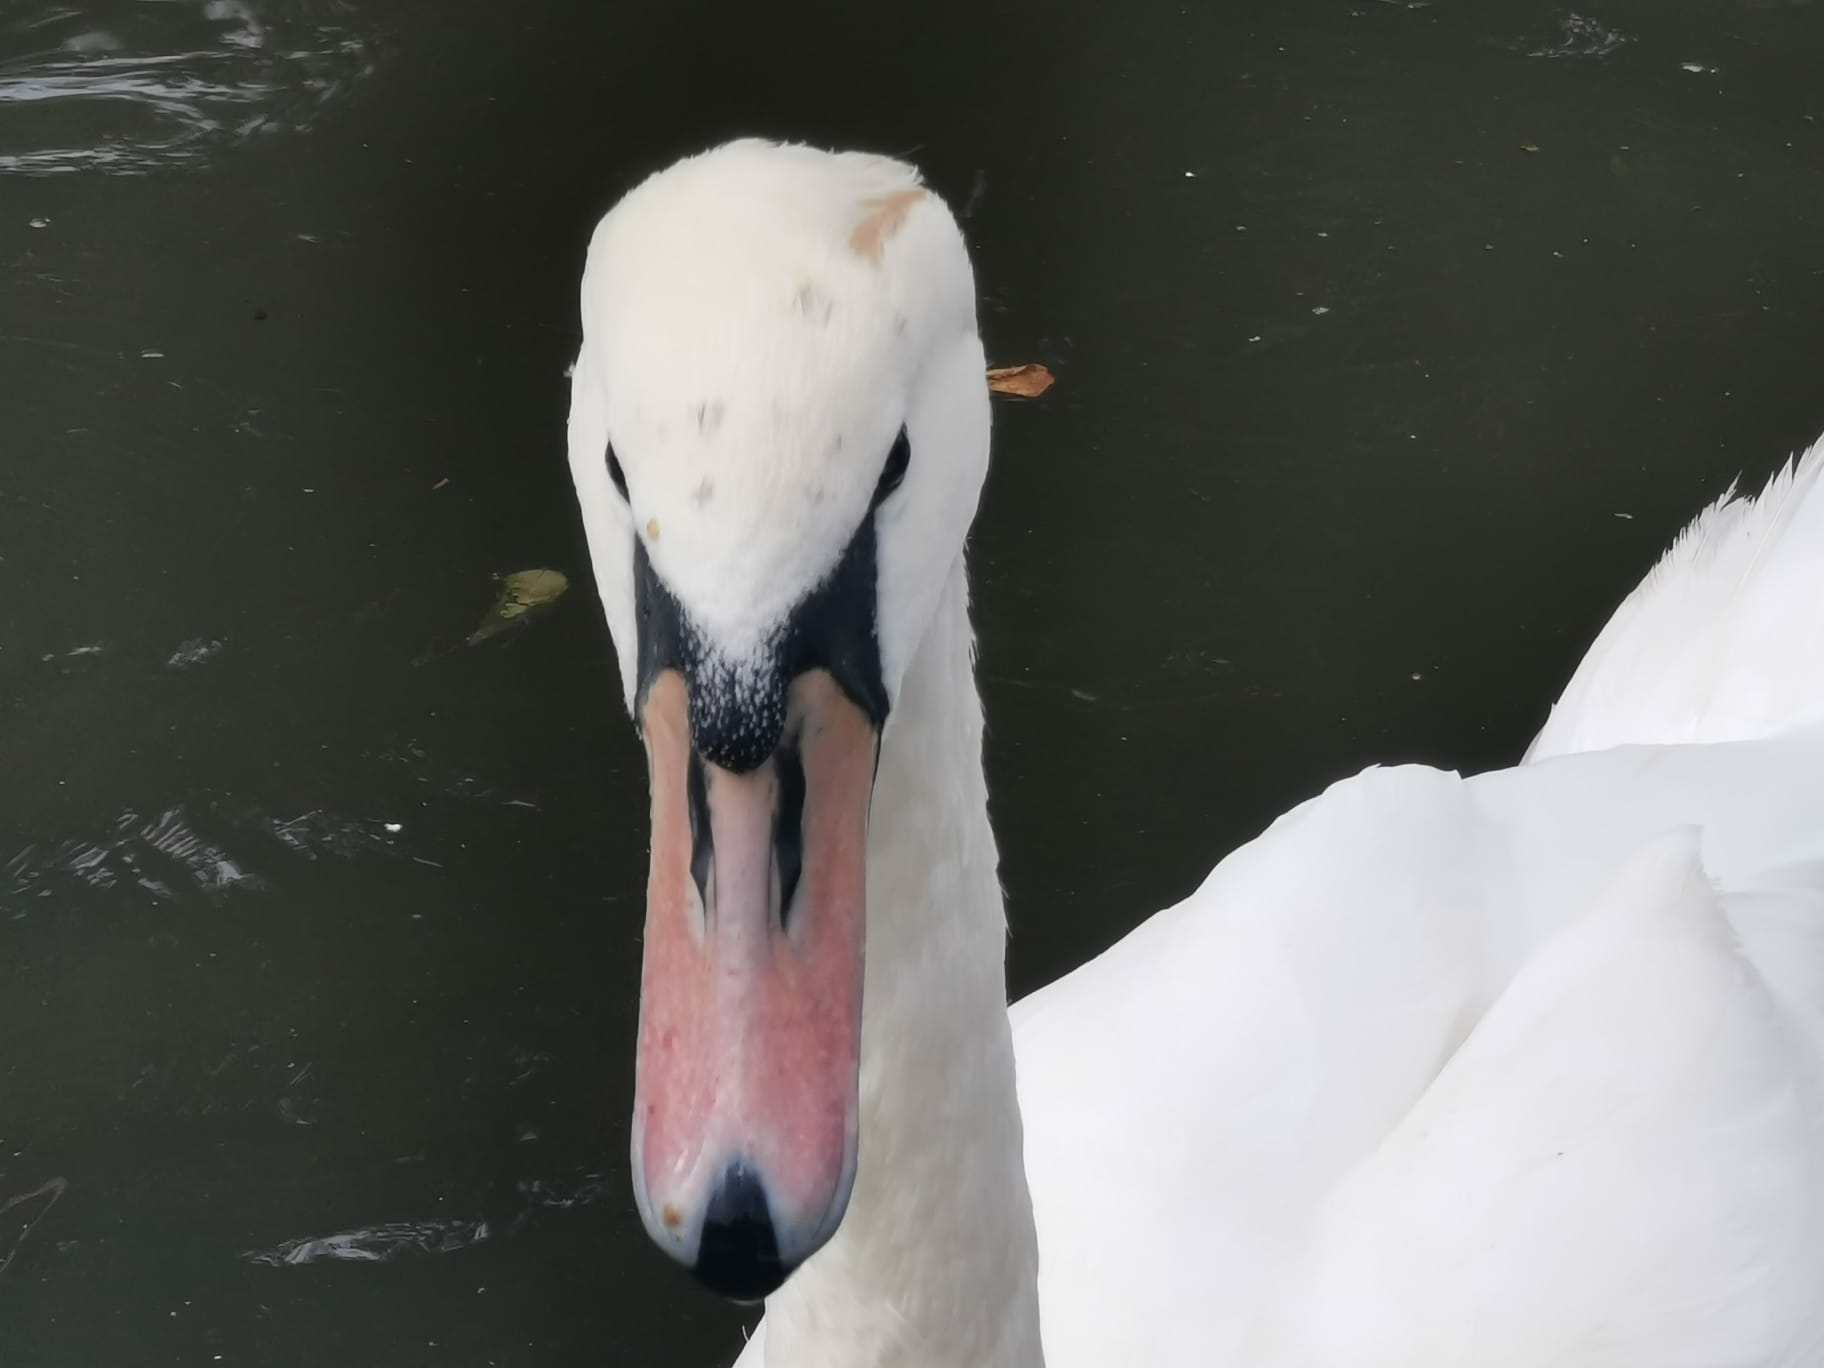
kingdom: Animalia
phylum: Chordata
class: Aves
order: Anseriformes
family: Anatidae
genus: Cygnus
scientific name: Cygnus olor
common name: Mute swan
